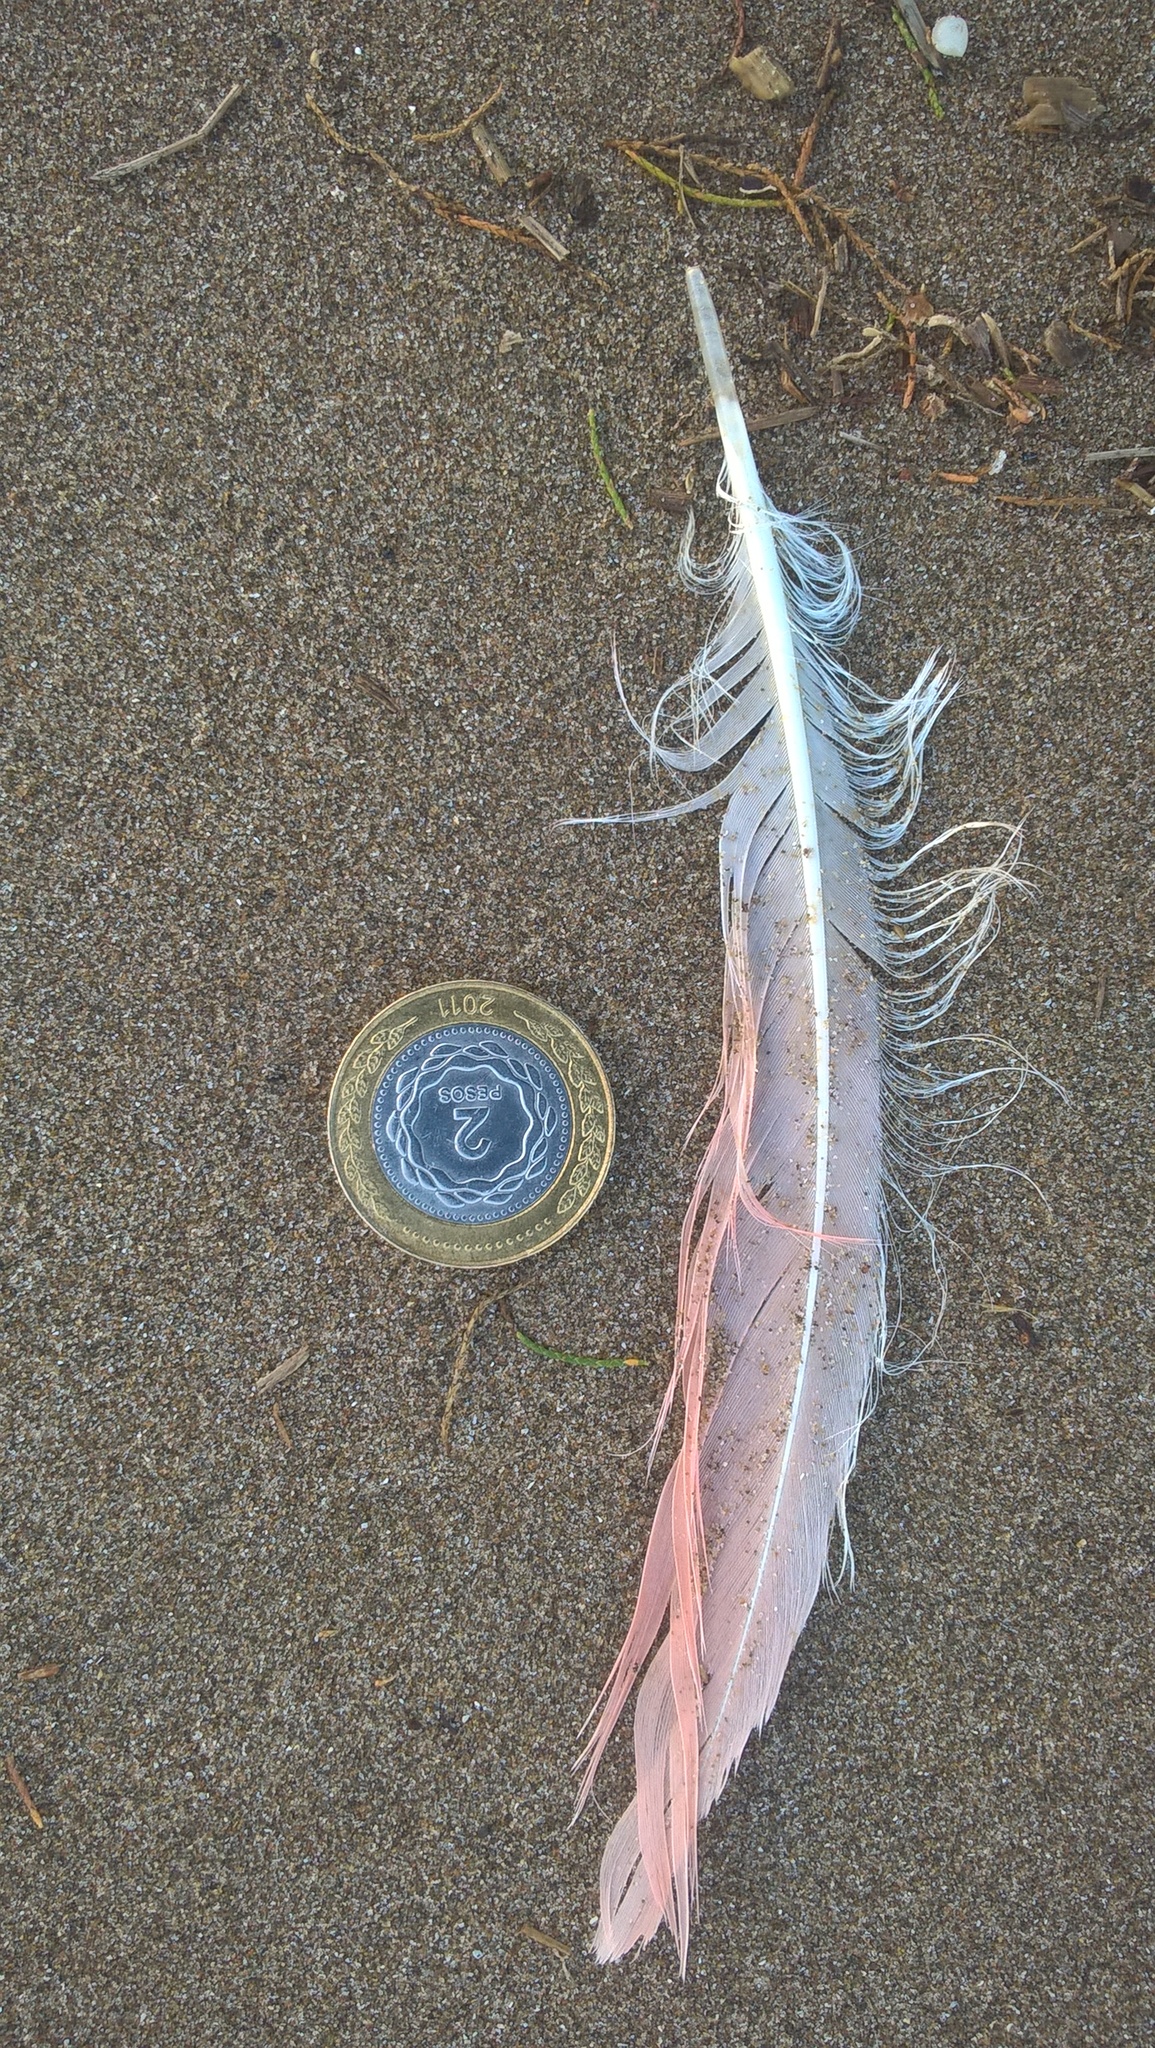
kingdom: Animalia
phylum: Chordata
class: Aves
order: Phoenicopteriformes
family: Phoenicopteridae
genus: Phoenicopterus
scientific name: Phoenicopterus chilensis
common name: Chilean flamingo
